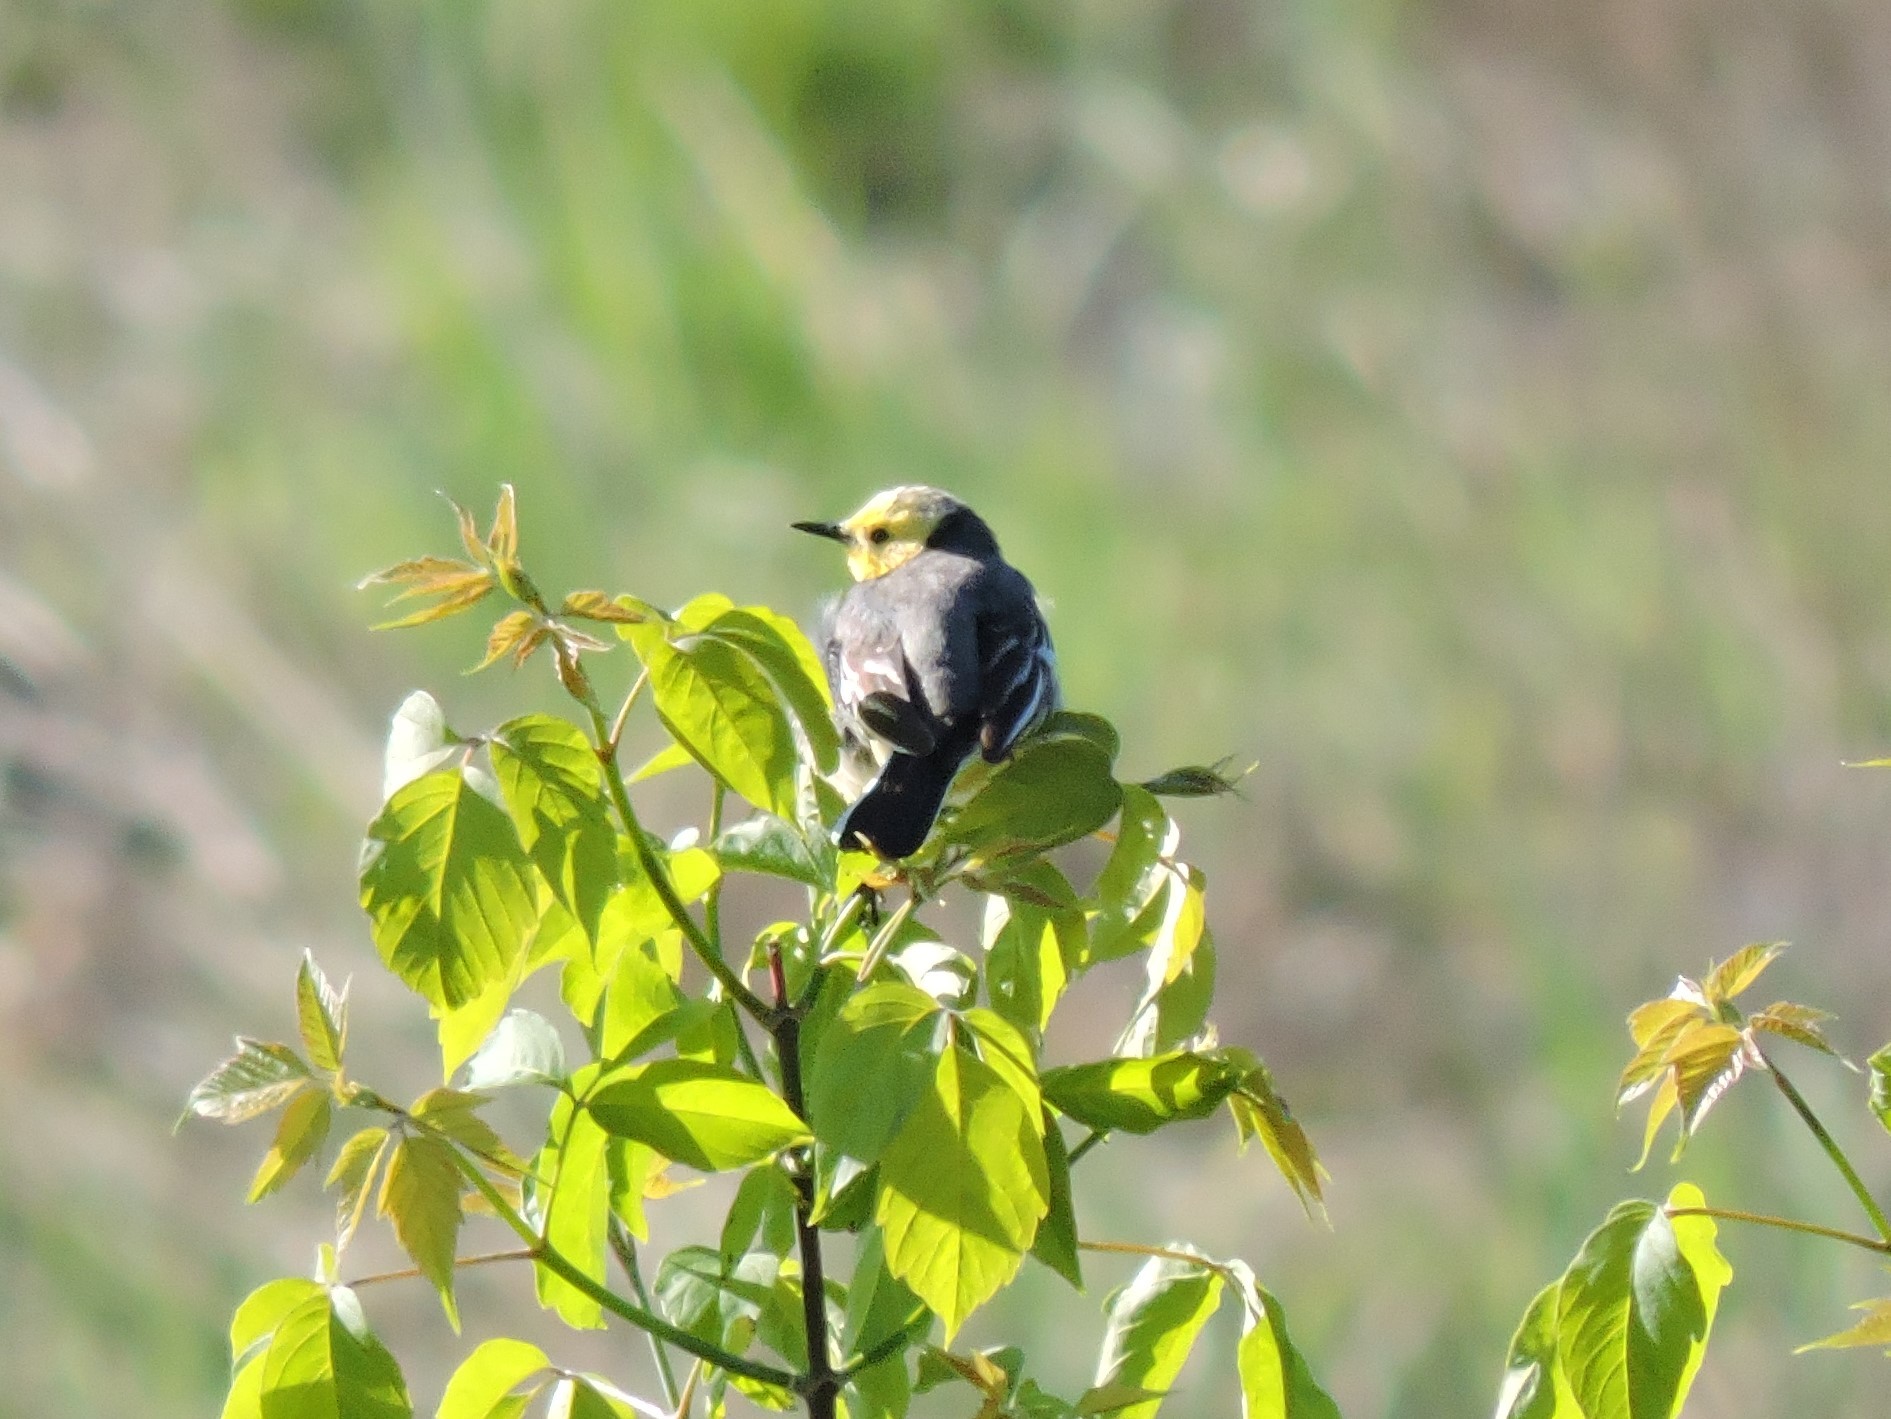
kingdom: Animalia
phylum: Chordata
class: Aves
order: Passeriformes
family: Motacillidae
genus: Motacilla
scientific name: Motacilla citreola
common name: Citrine wagtail
